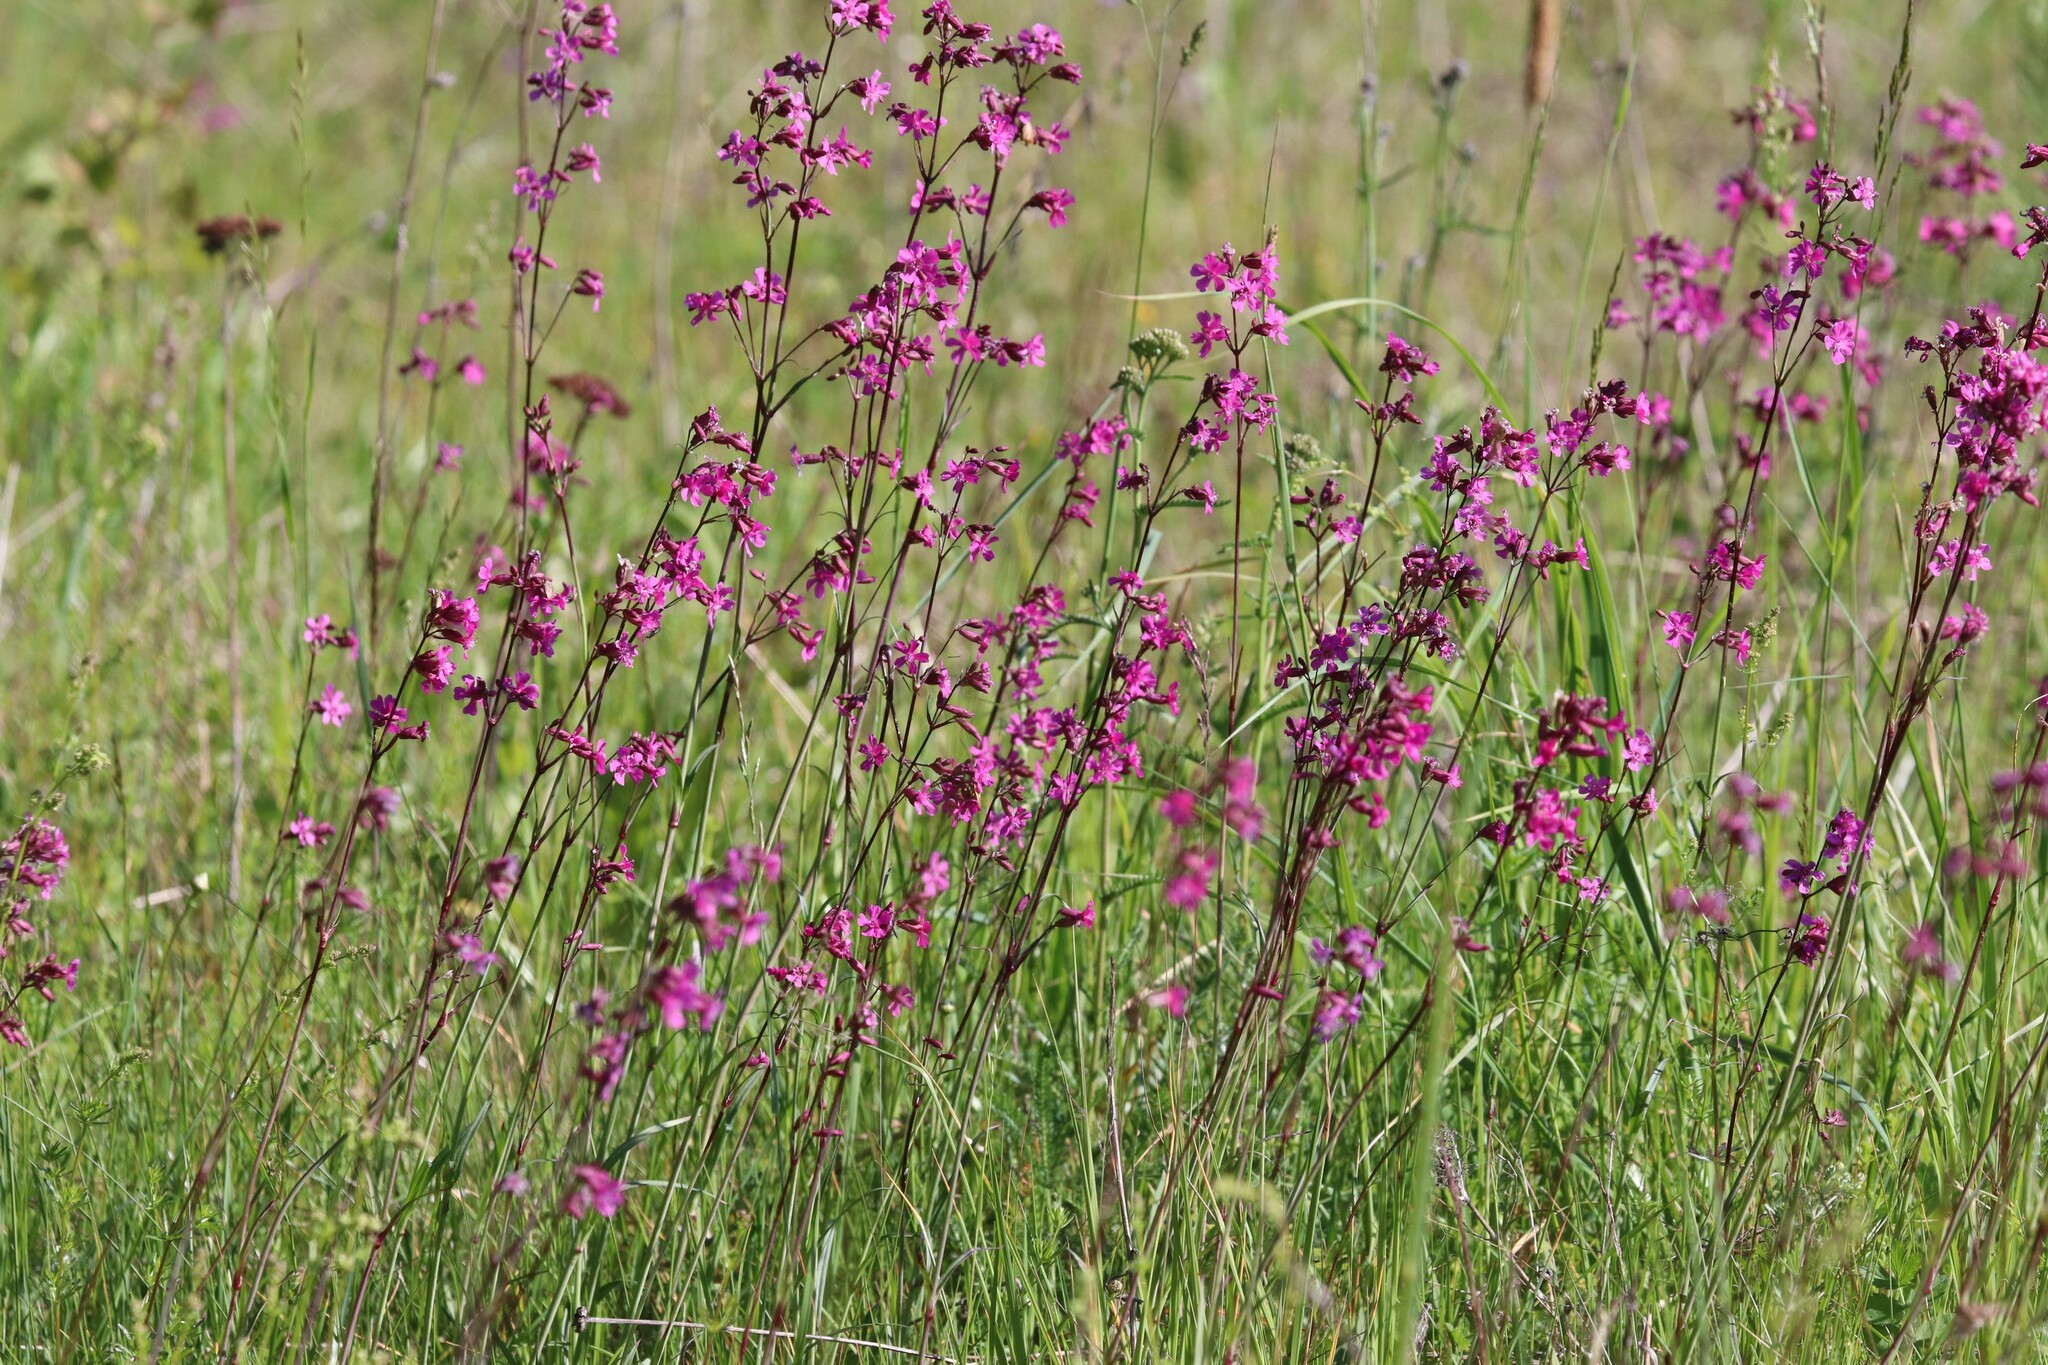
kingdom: Plantae
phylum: Tracheophyta
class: Magnoliopsida
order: Caryophyllales
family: Caryophyllaceae
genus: Viscaria
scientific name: Viscaria vulgaris
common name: Clammy campion
